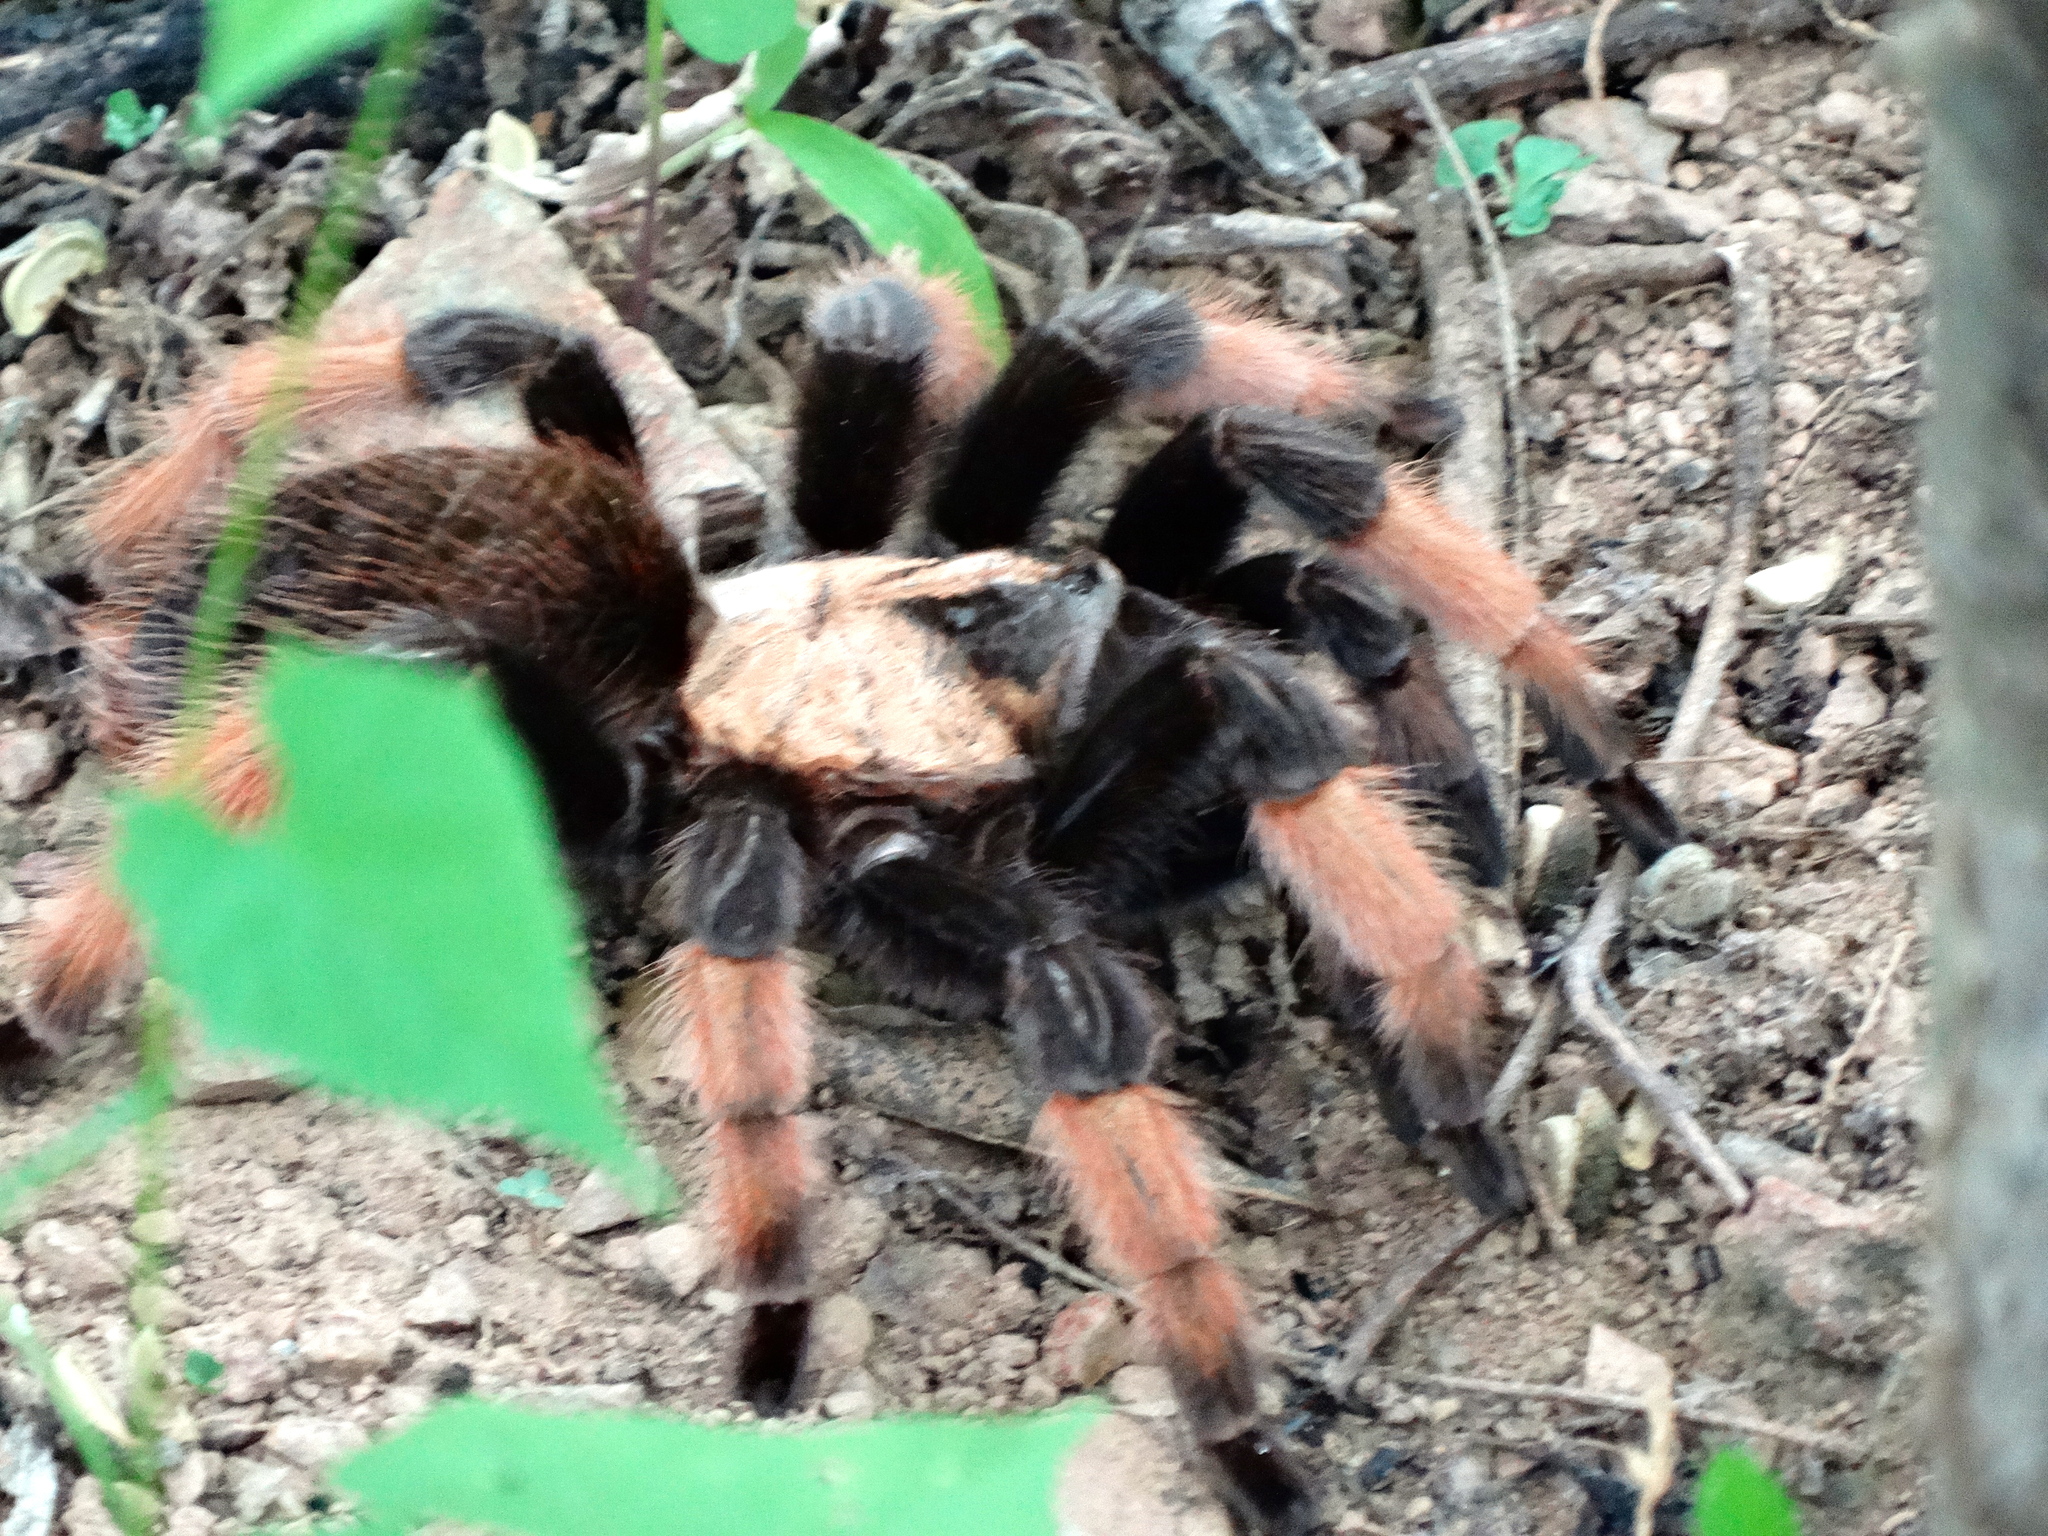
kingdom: Animalia
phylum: Arthropoda
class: Arachnida
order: Araneae
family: Theraphosidae
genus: Brachypelma
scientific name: Brachypelma emilia
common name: Mexican redleg
